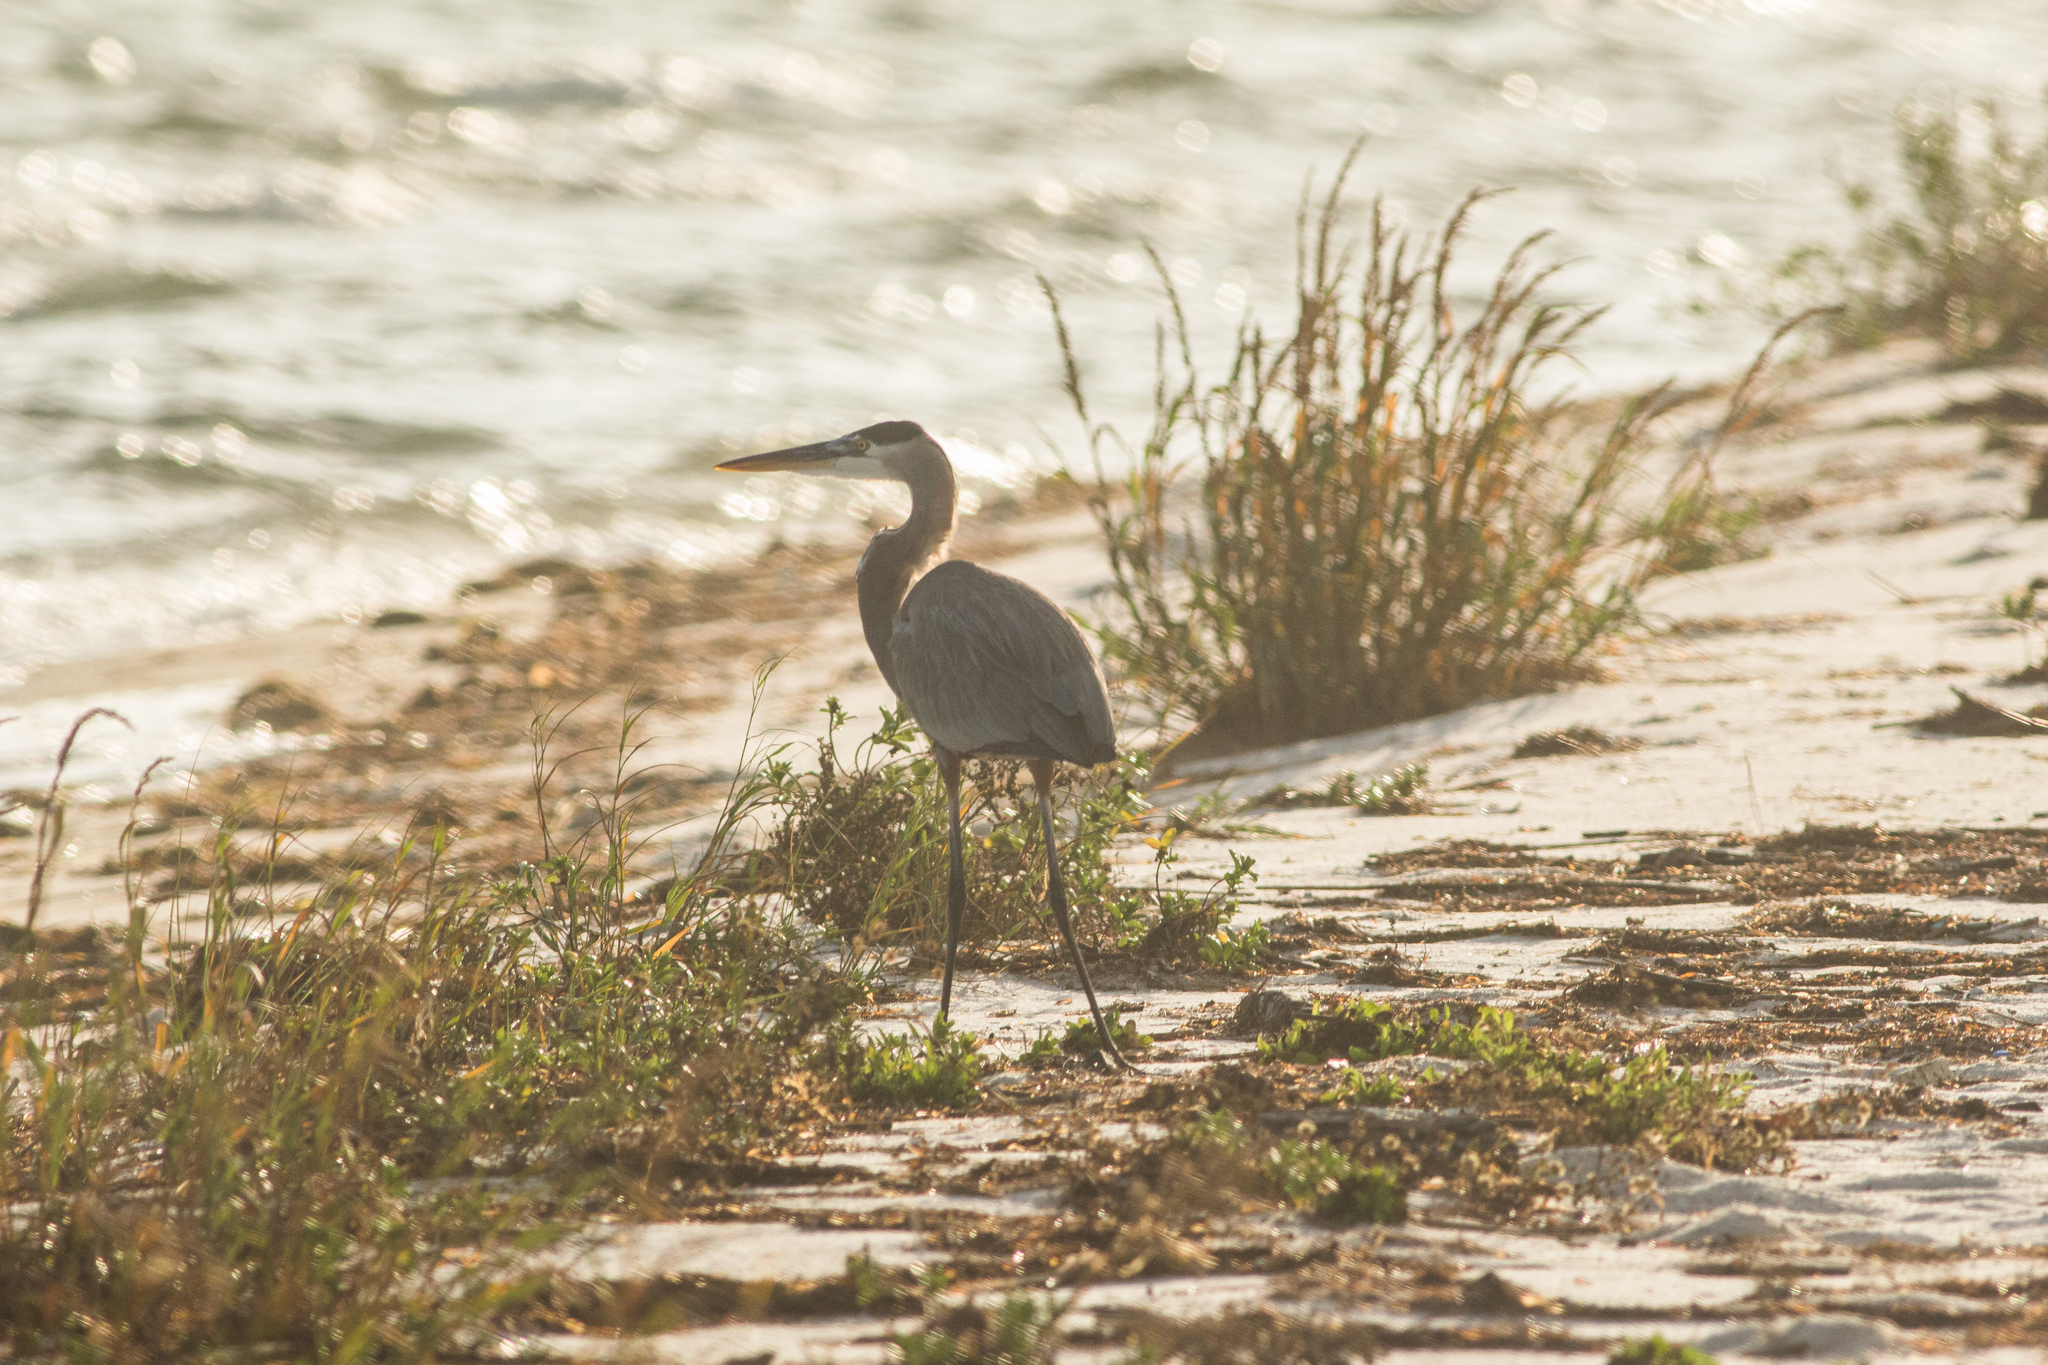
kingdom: Animalia
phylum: Chordata
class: Aves
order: Pelecaniformes
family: Ardeidae
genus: Ardea
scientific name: Ardea herodias
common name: Great blue heron
